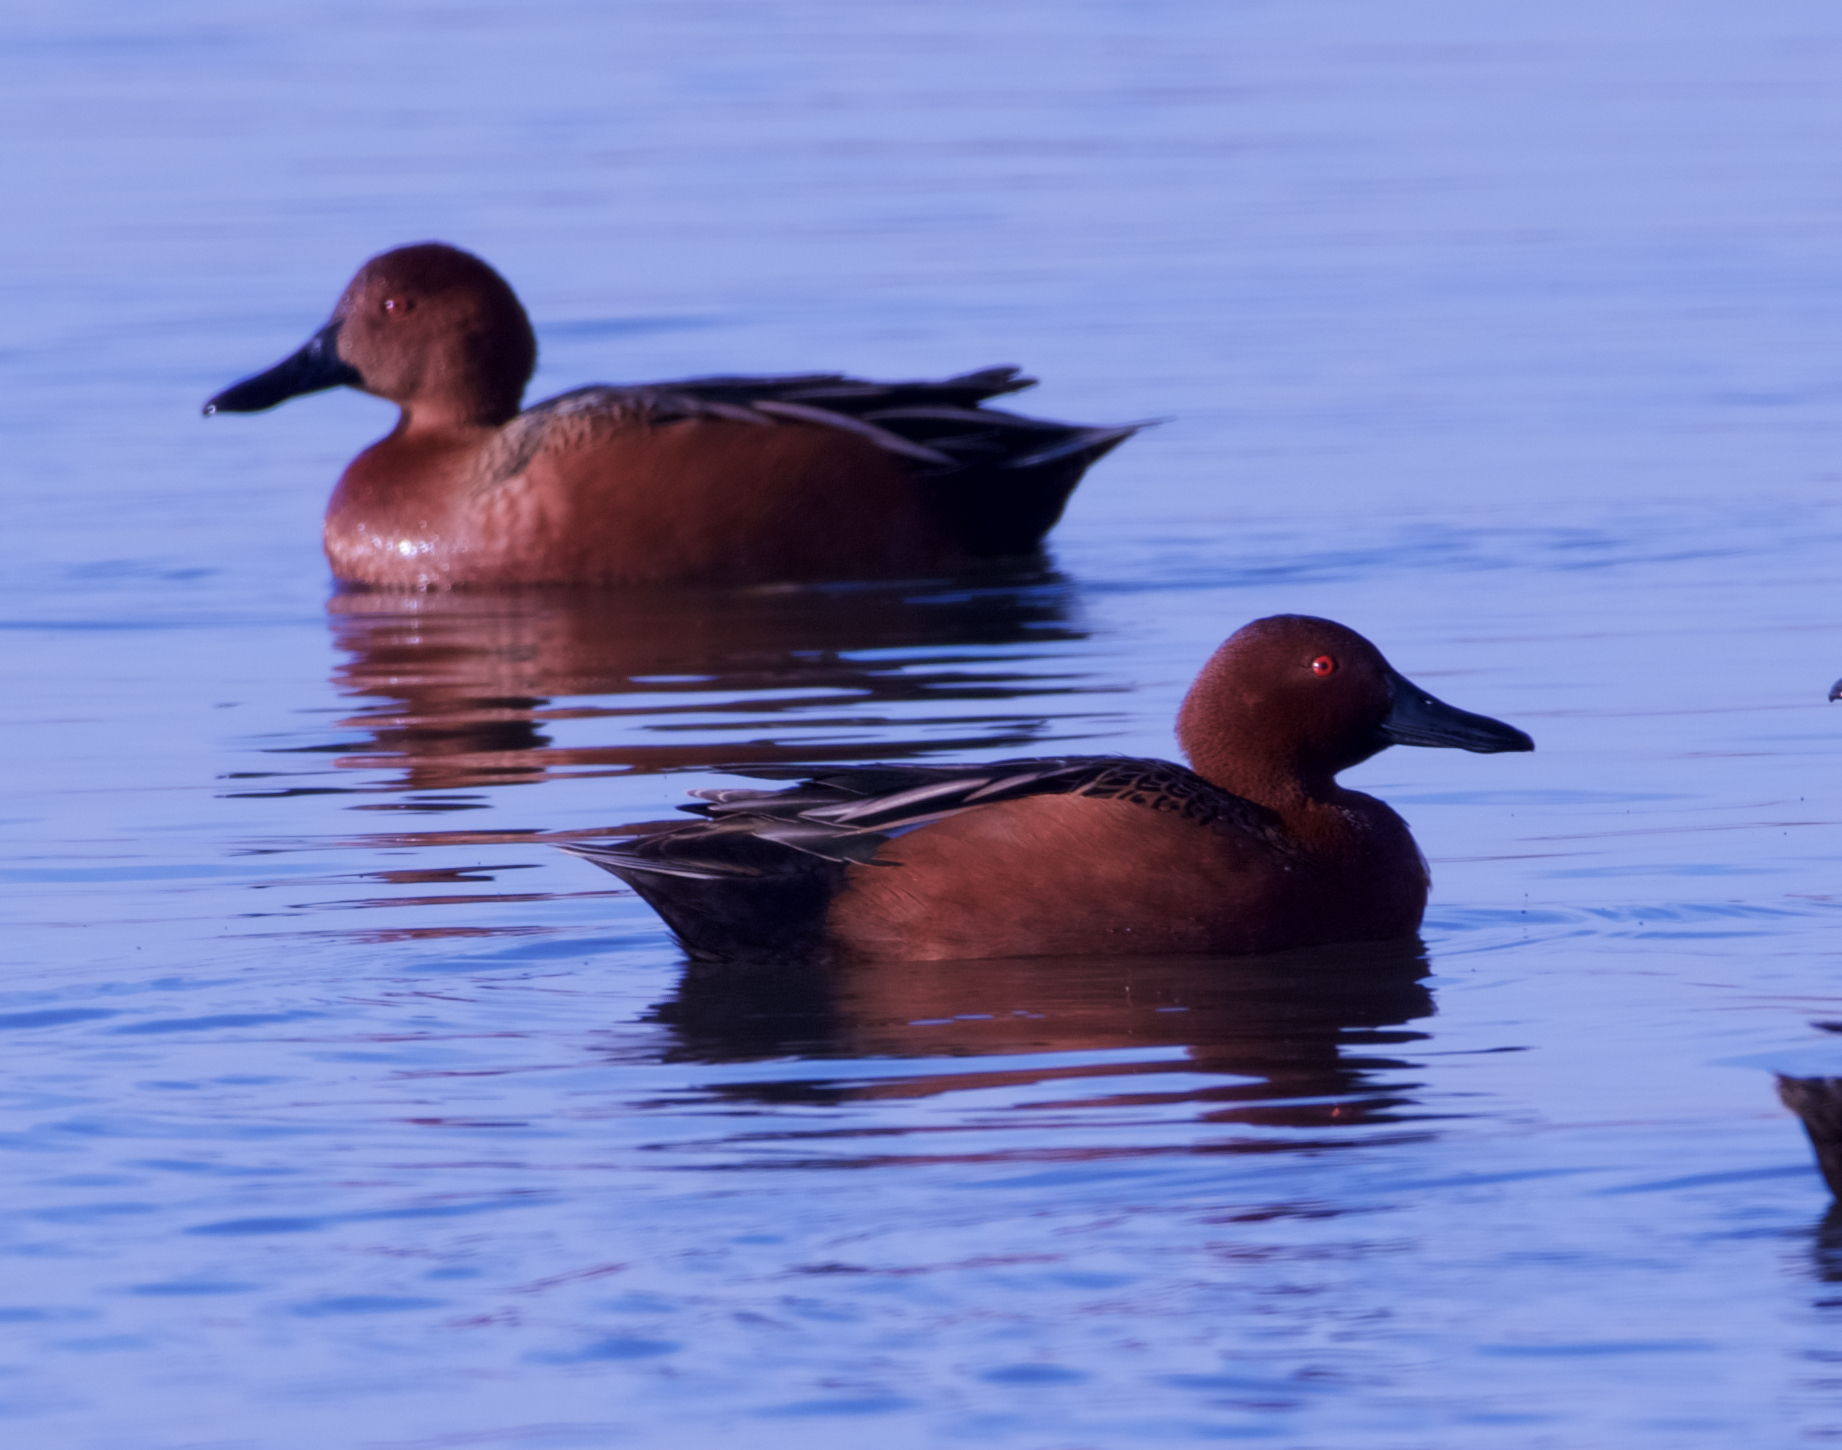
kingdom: Animalia
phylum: Chordata
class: Aves
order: Anseriformes
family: Anatidae
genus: Spatula
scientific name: Spatula cyanoptera
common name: Cinnamon teal
